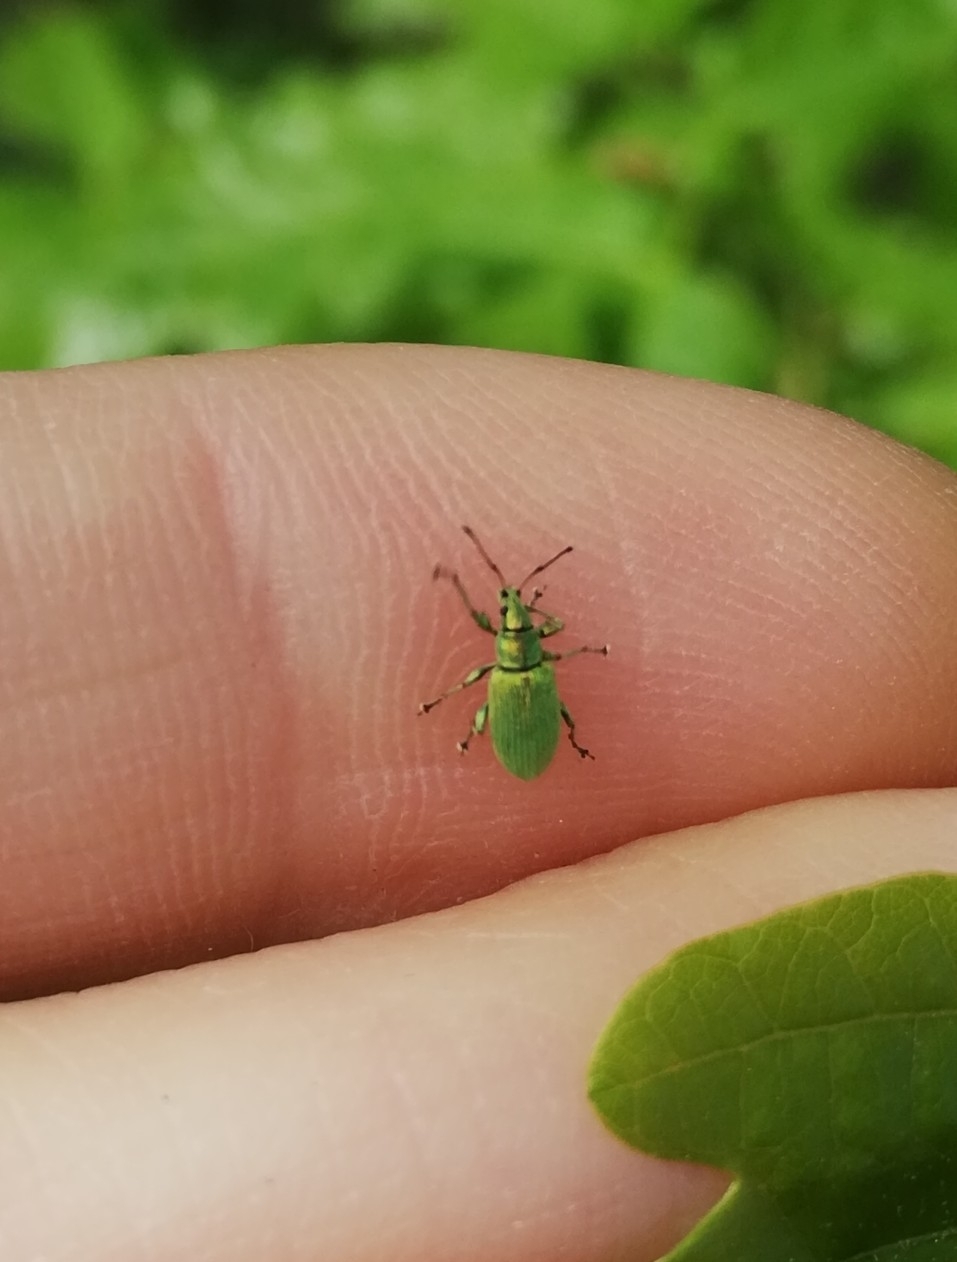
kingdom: Animalia
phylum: Arthropoda
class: Insecta
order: Coleoptera
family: Curculionidae
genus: Phyllobius
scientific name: Phyllobius maculicornis
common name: Green leaf weevil
